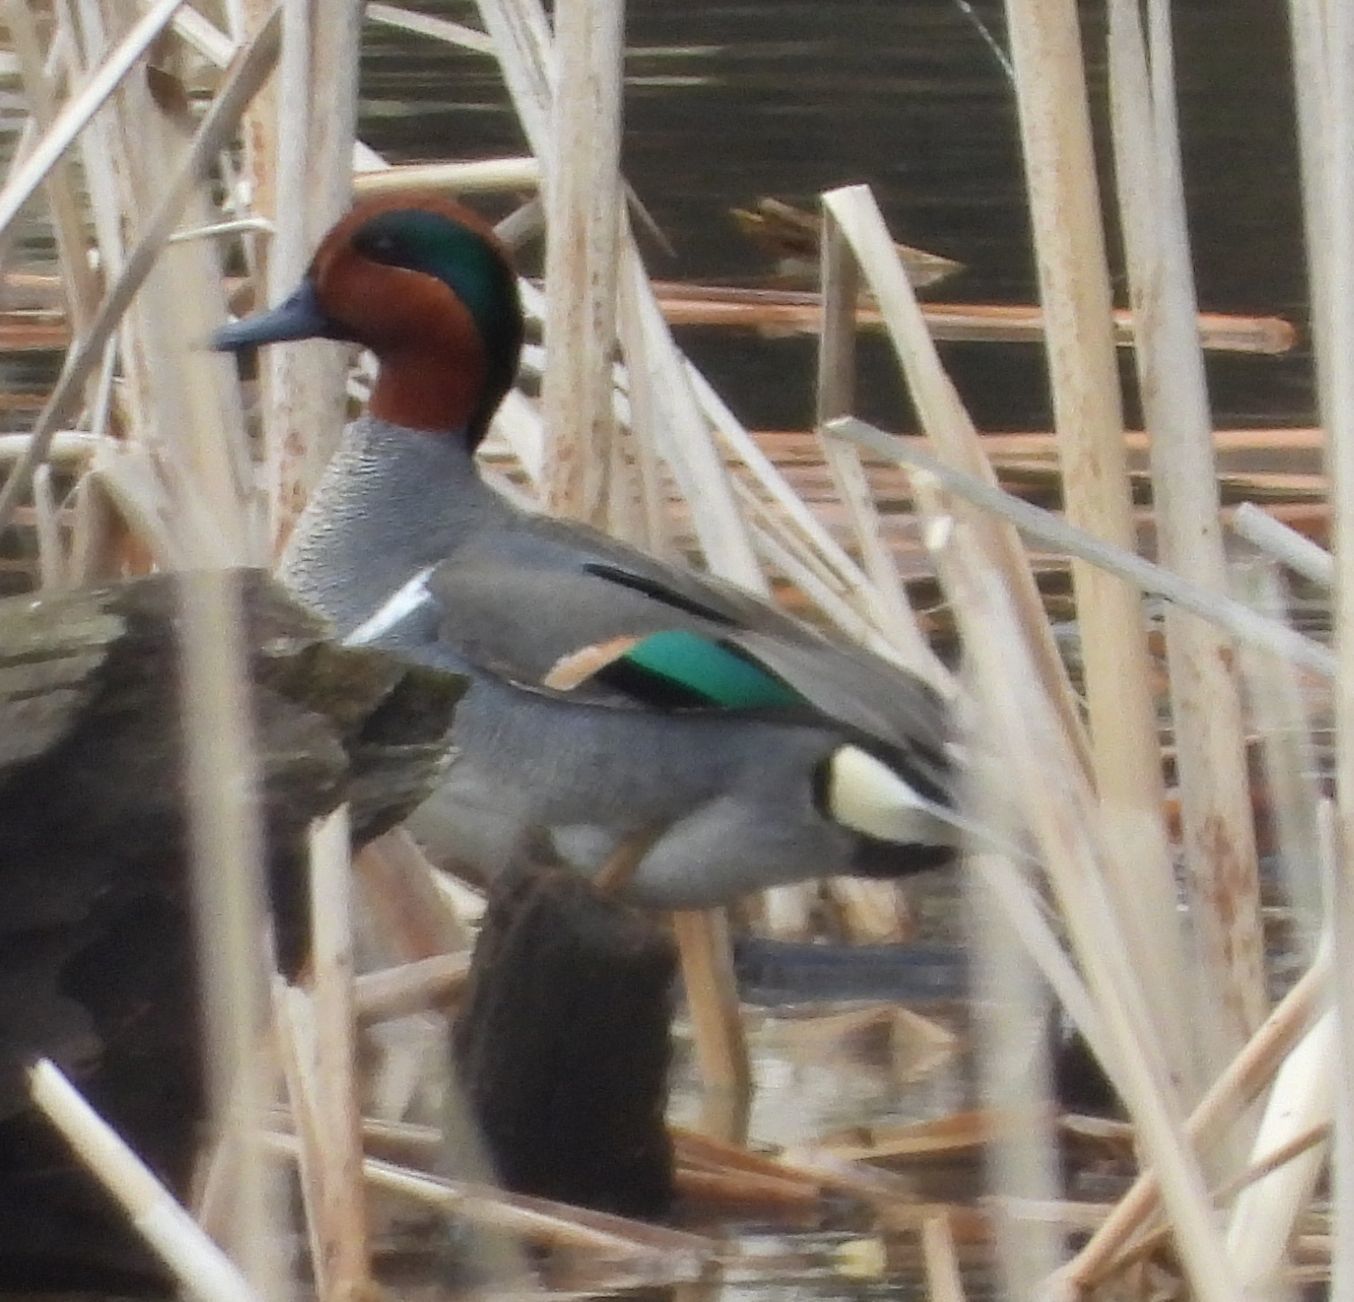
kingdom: Animalia
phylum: Chordata
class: Aves
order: Anseriformes
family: Anatidae
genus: Anas
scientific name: Anas crecca
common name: Eurasian teal
